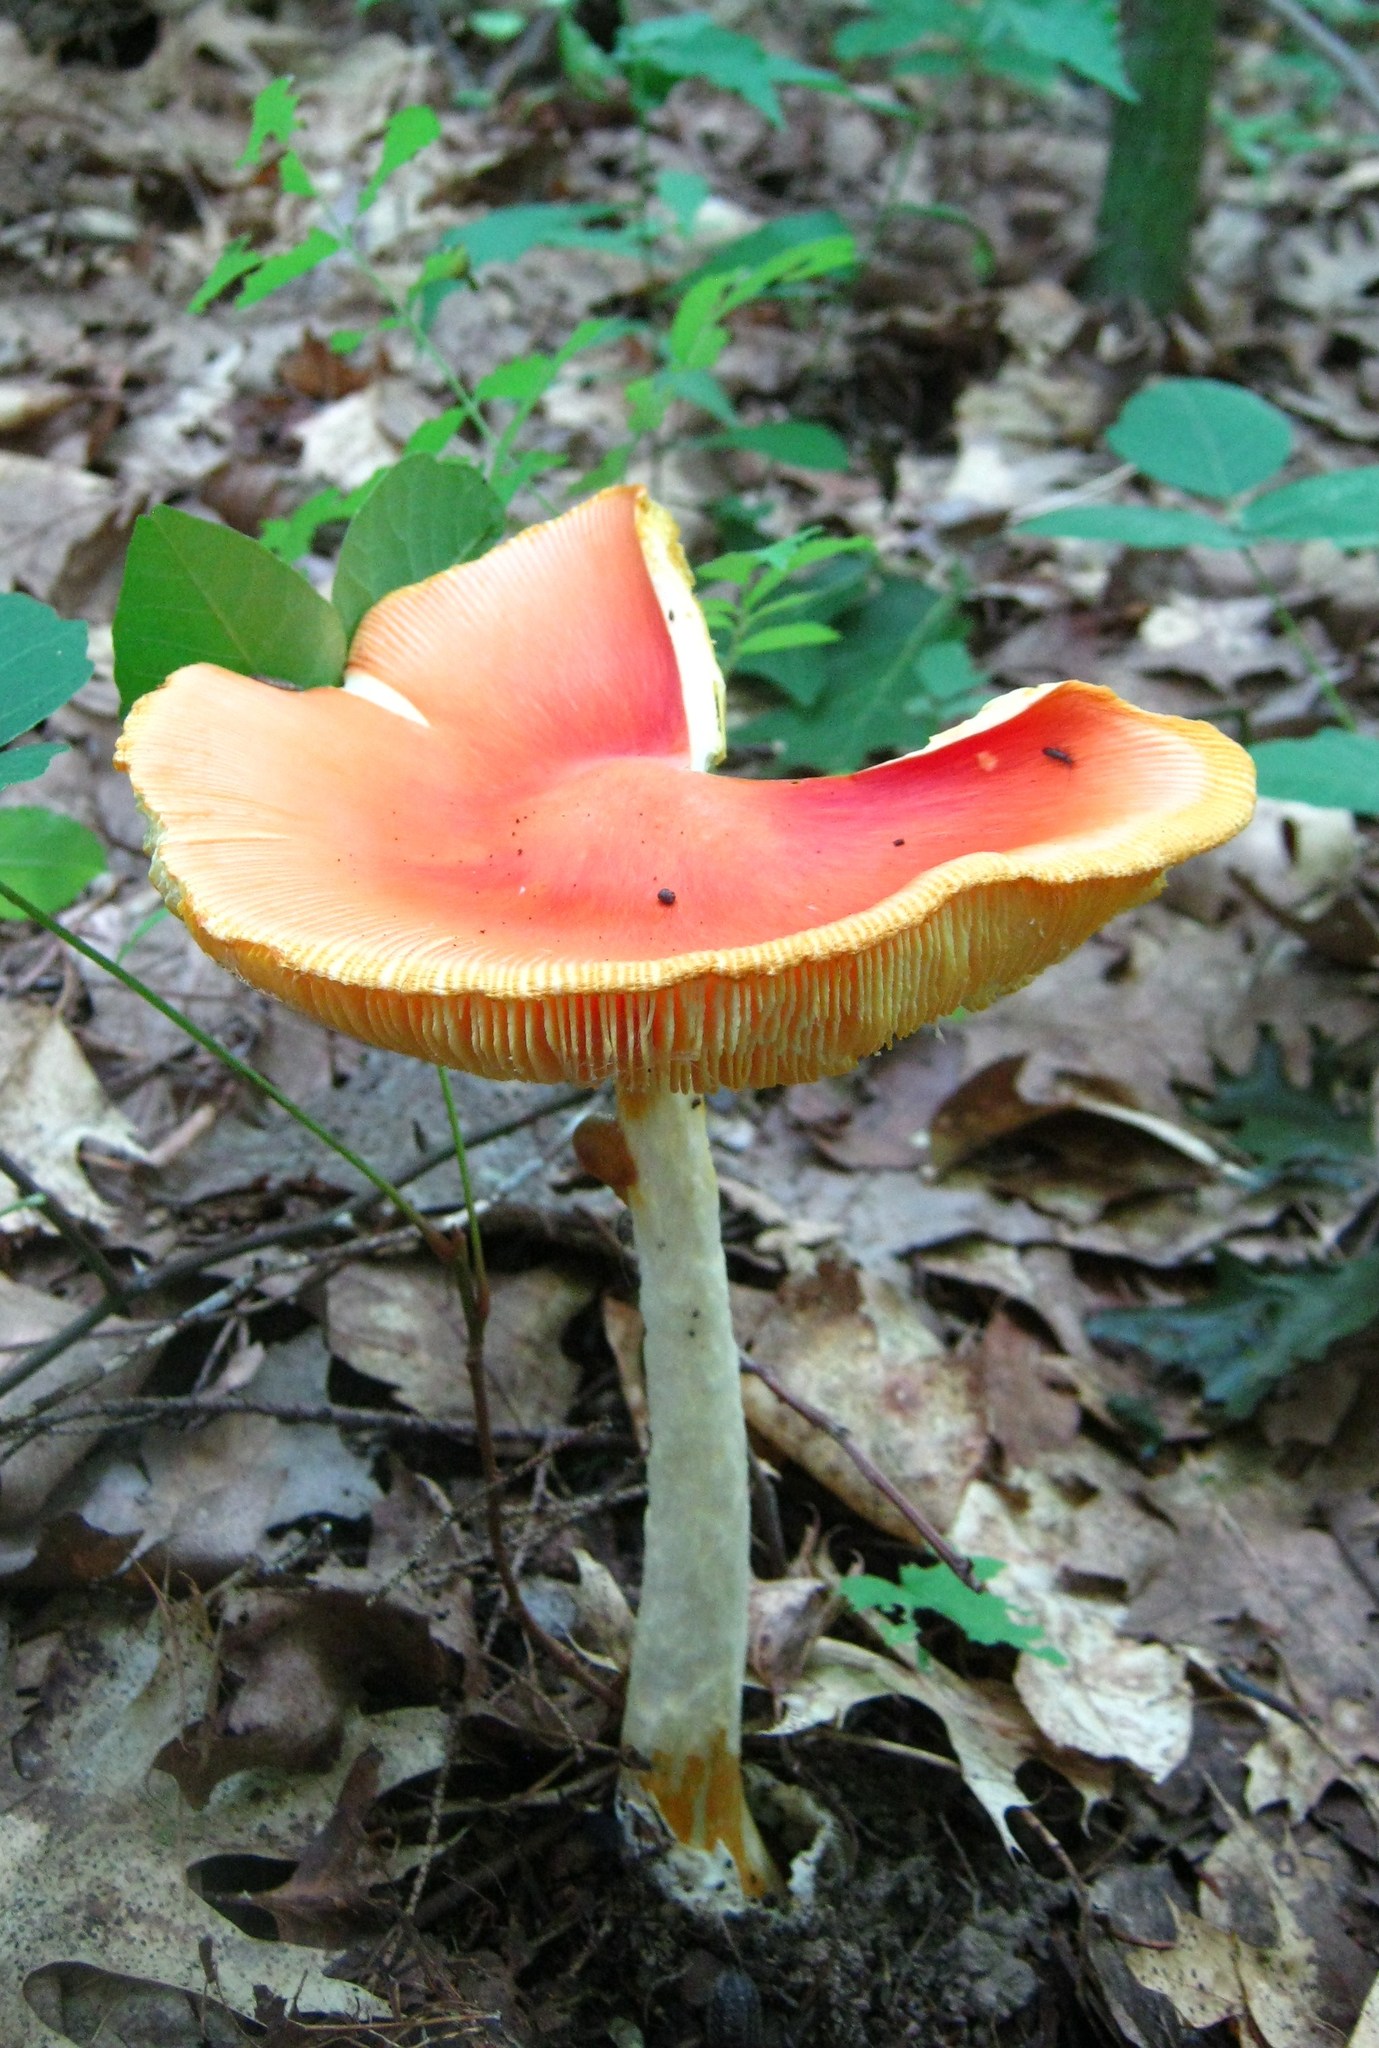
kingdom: Fungi
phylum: Basidiomycota
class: Agaricomycetes
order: Agaricales
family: Amanitaceae
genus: Amanita
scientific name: Amanita jacksonii
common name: Jackson's slender caesar
